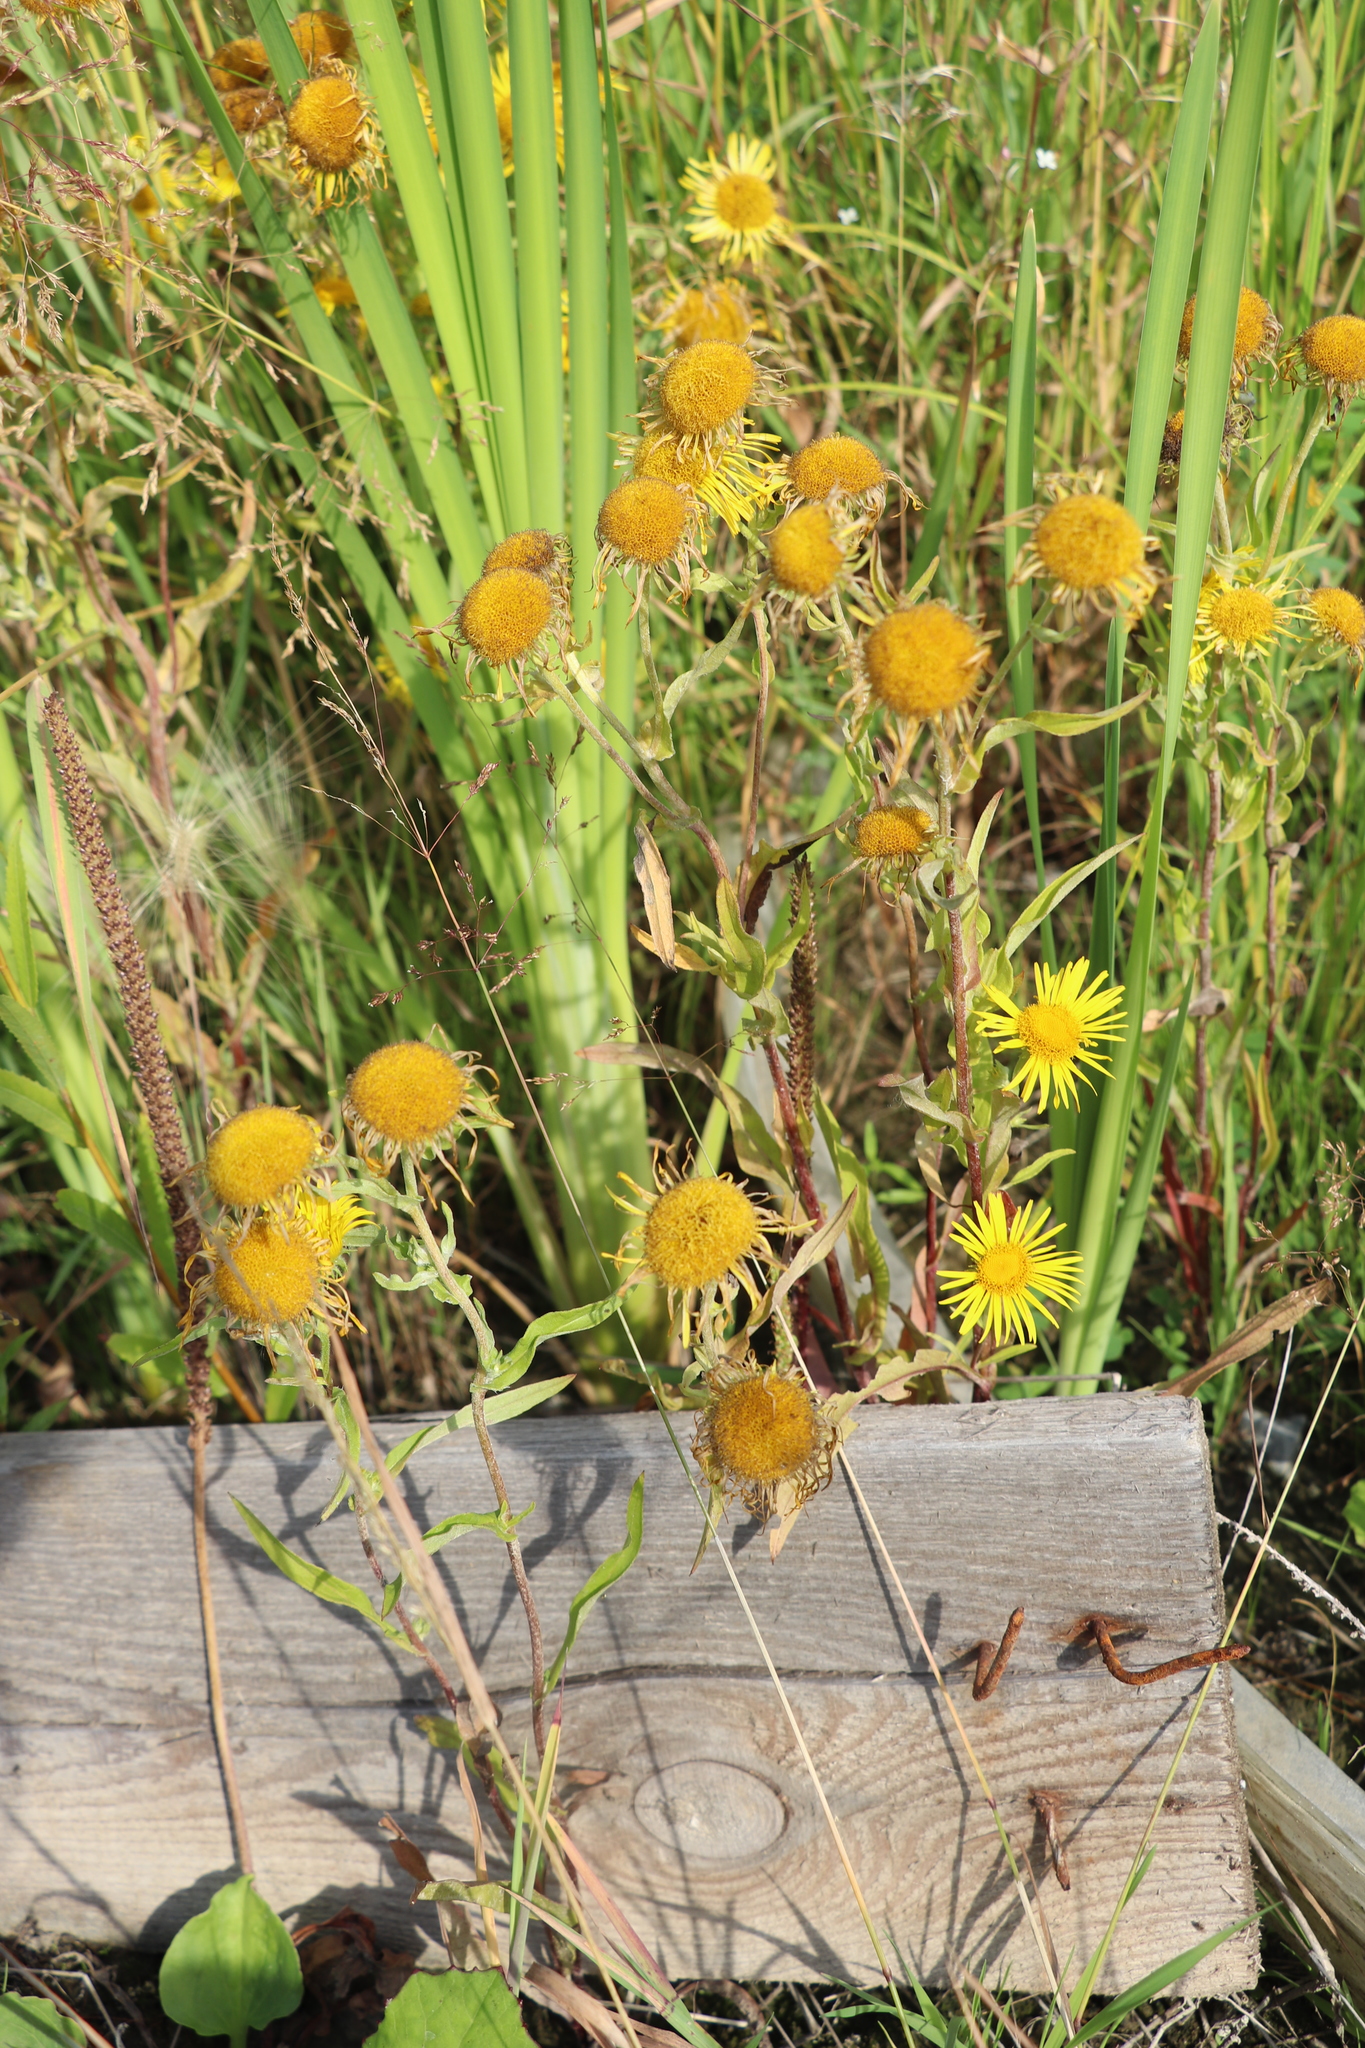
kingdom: Plantae
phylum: Tracheophyta
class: Magnoliopsida
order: Asterales
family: Asteraceae
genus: Pentanema
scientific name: Pentanema britannicum
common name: British elecampane
